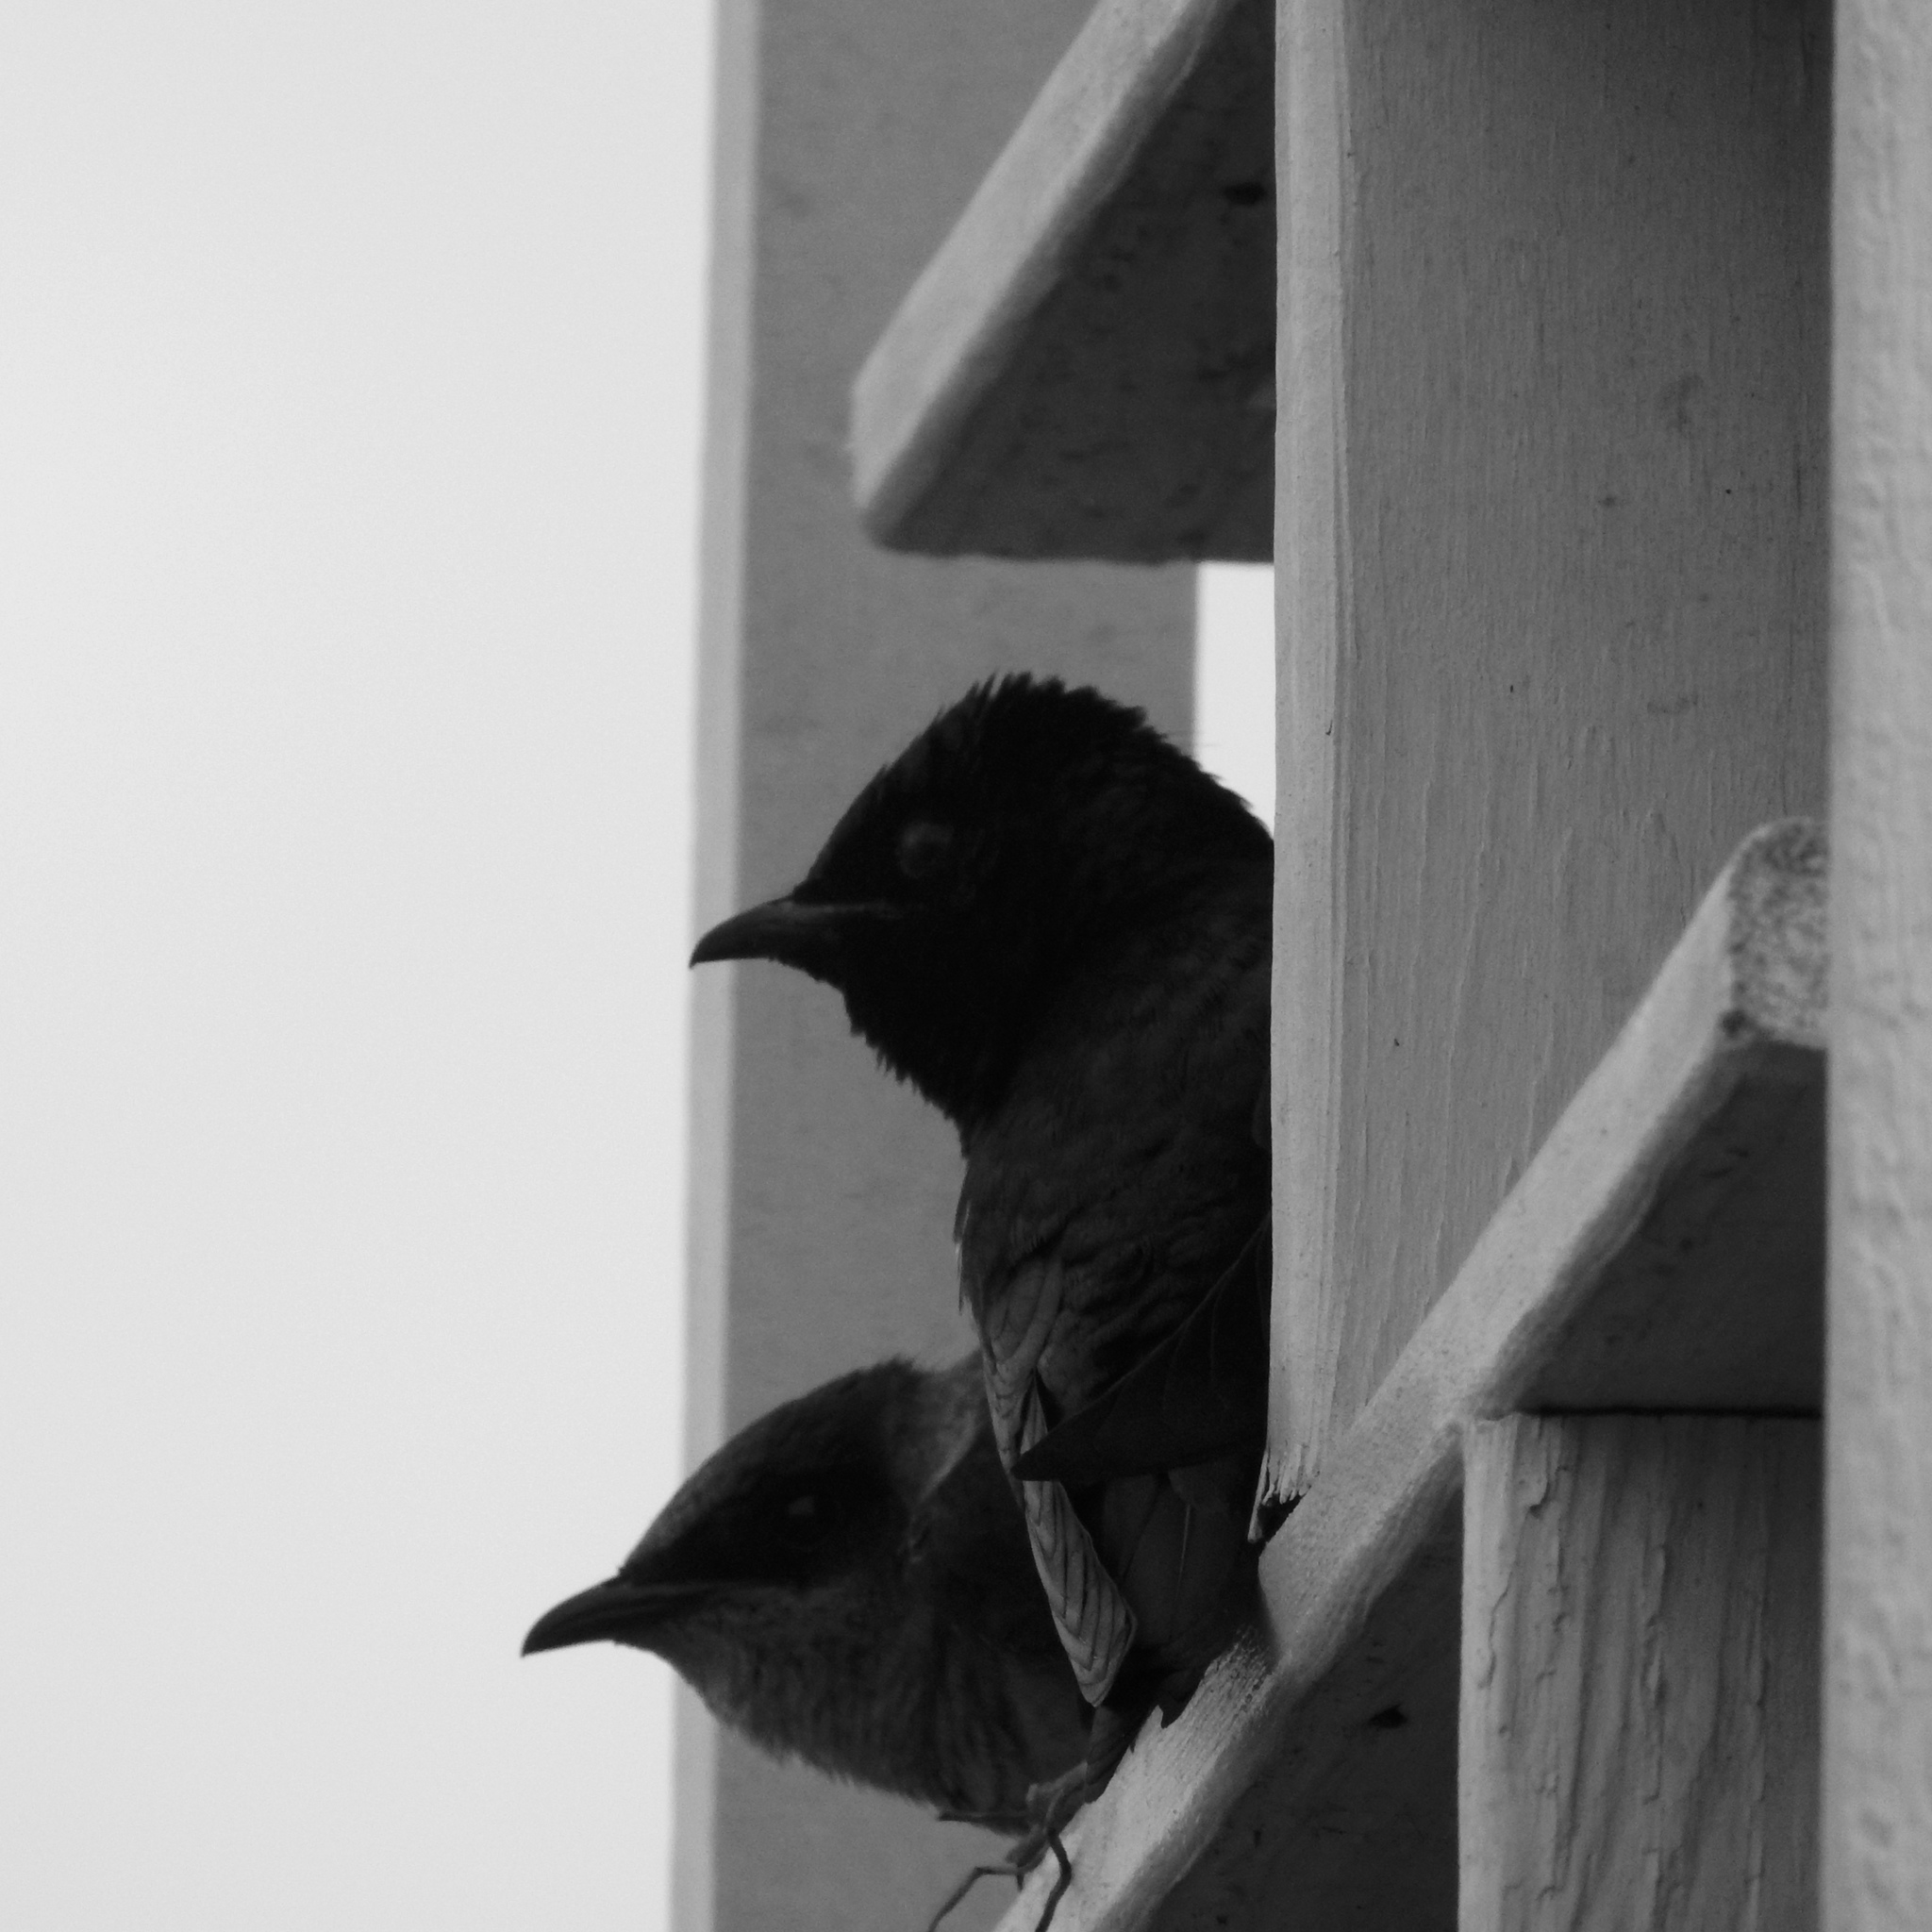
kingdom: Animalia
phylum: Chordata
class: Aves
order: Passeriformes
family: Hirundinidae
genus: Progne
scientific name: Progne subis
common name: Purple martin
